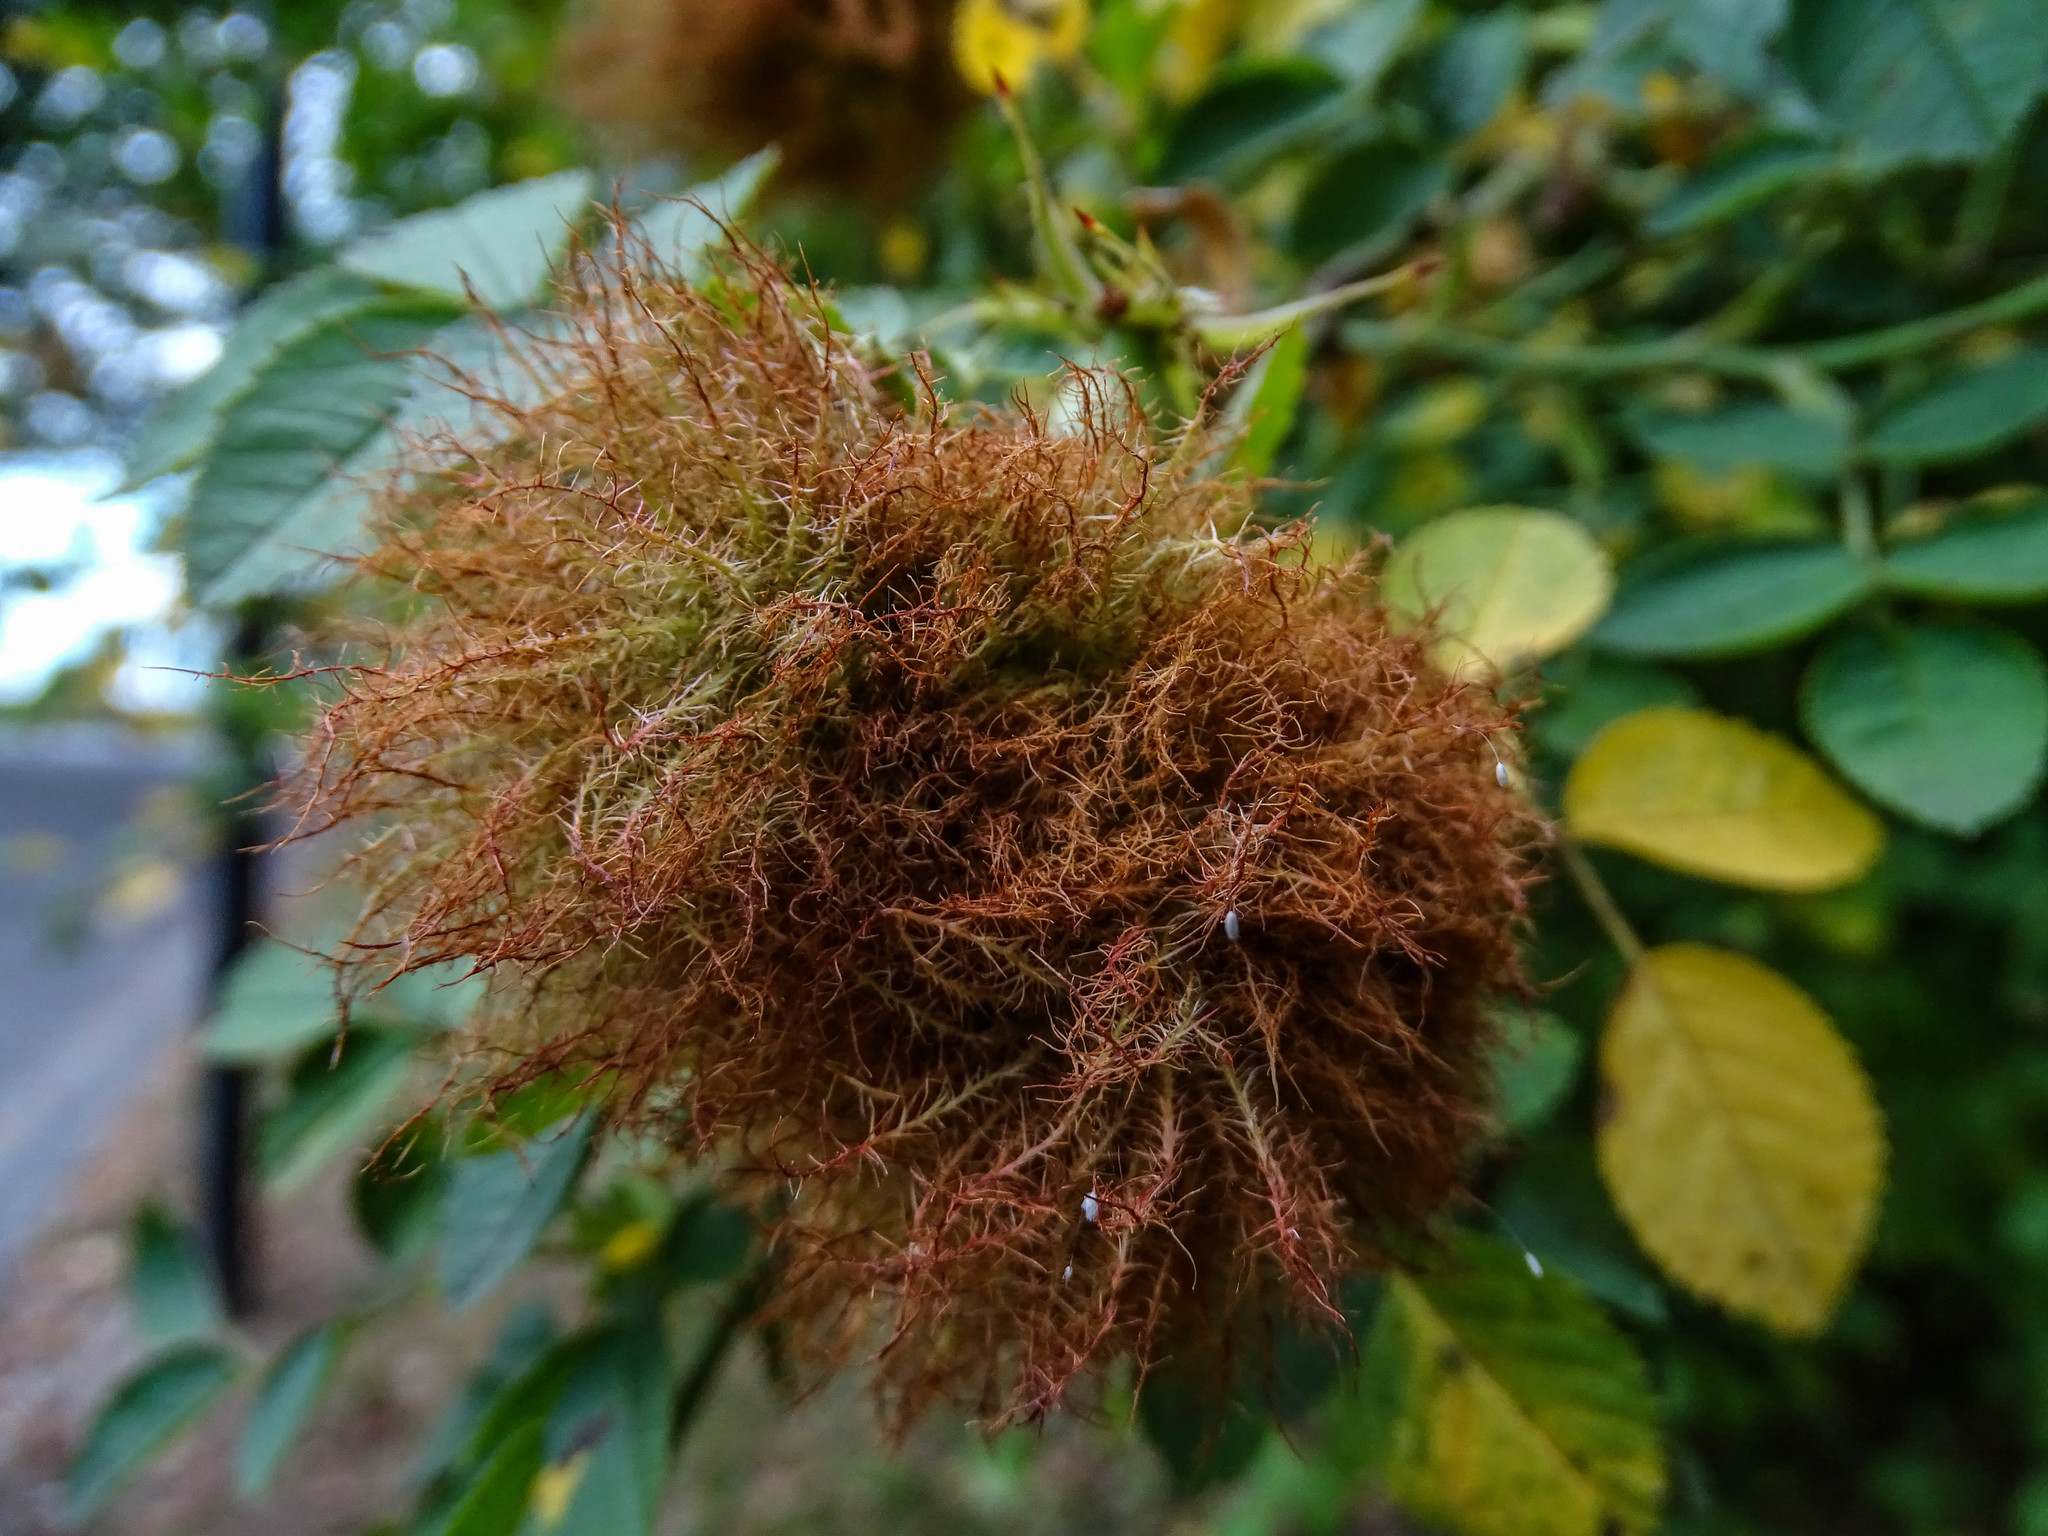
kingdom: Animalia
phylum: Arthropoda
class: Insecta
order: Hymenoptera
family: Cynipidae
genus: Diplolepis
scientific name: Diplolepis rosae
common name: Bedeguar gall
